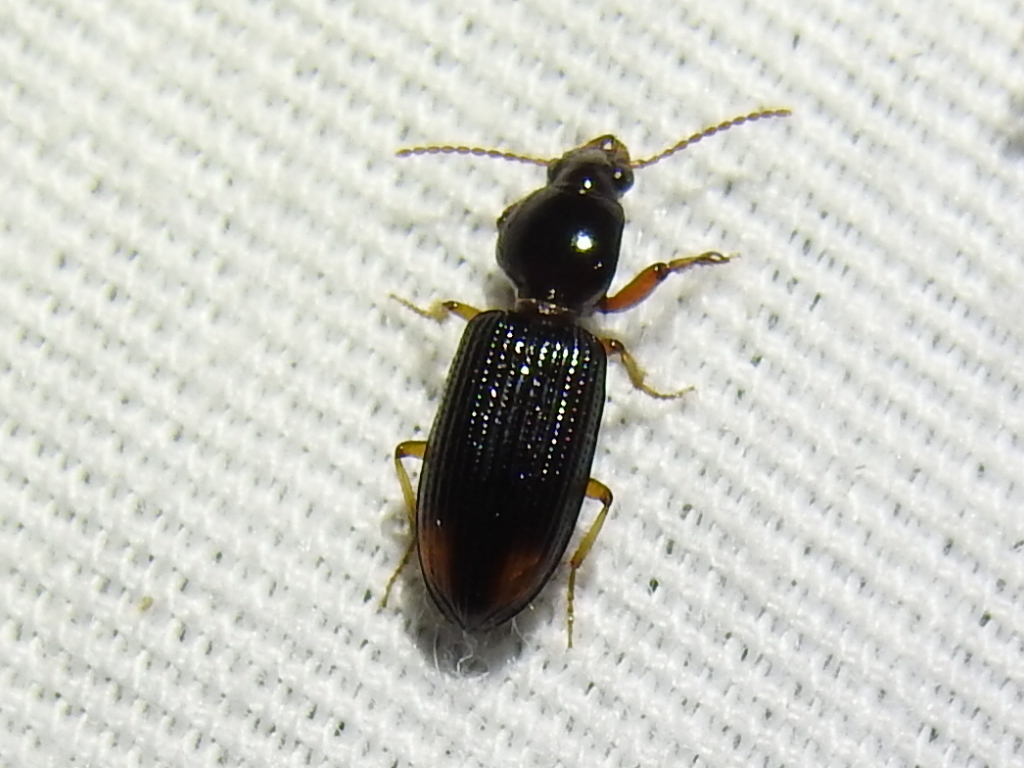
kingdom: Animalia
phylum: Arthropoda
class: Insecta
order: Coleoptera
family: Carabidae
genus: Aspidoglossa
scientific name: Aspidoglossa subangulata
